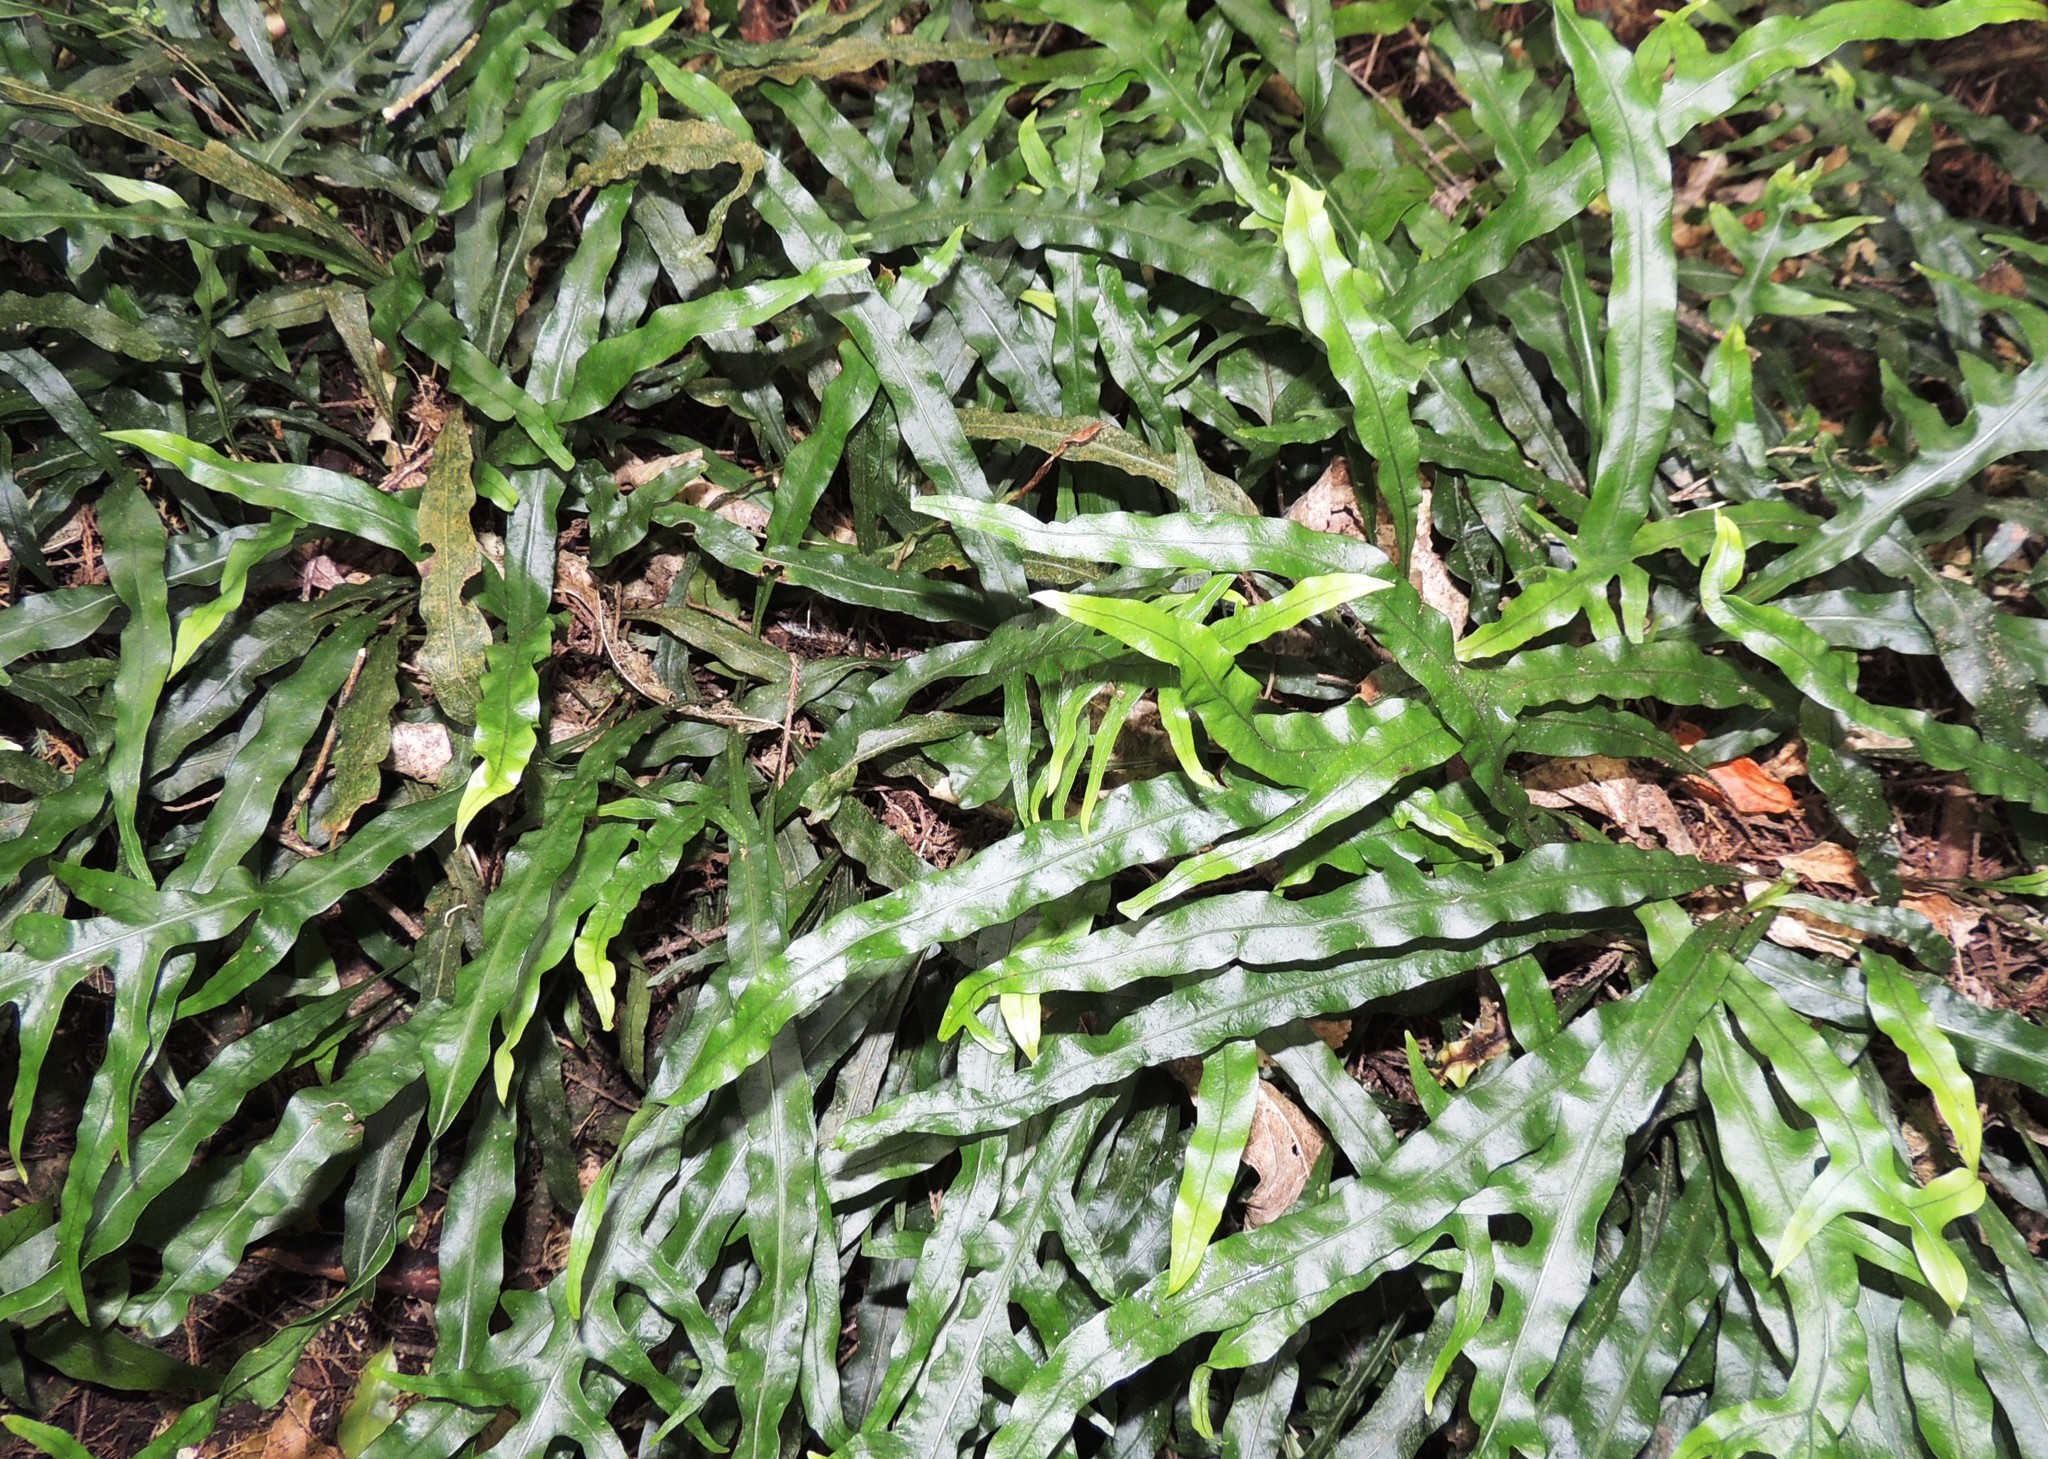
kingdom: Plantae
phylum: Tracheophyta
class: Polypodiopsida
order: Polypodiales
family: Polypodiaceae
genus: Lecanopteris
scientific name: Lecanopteris scandens
